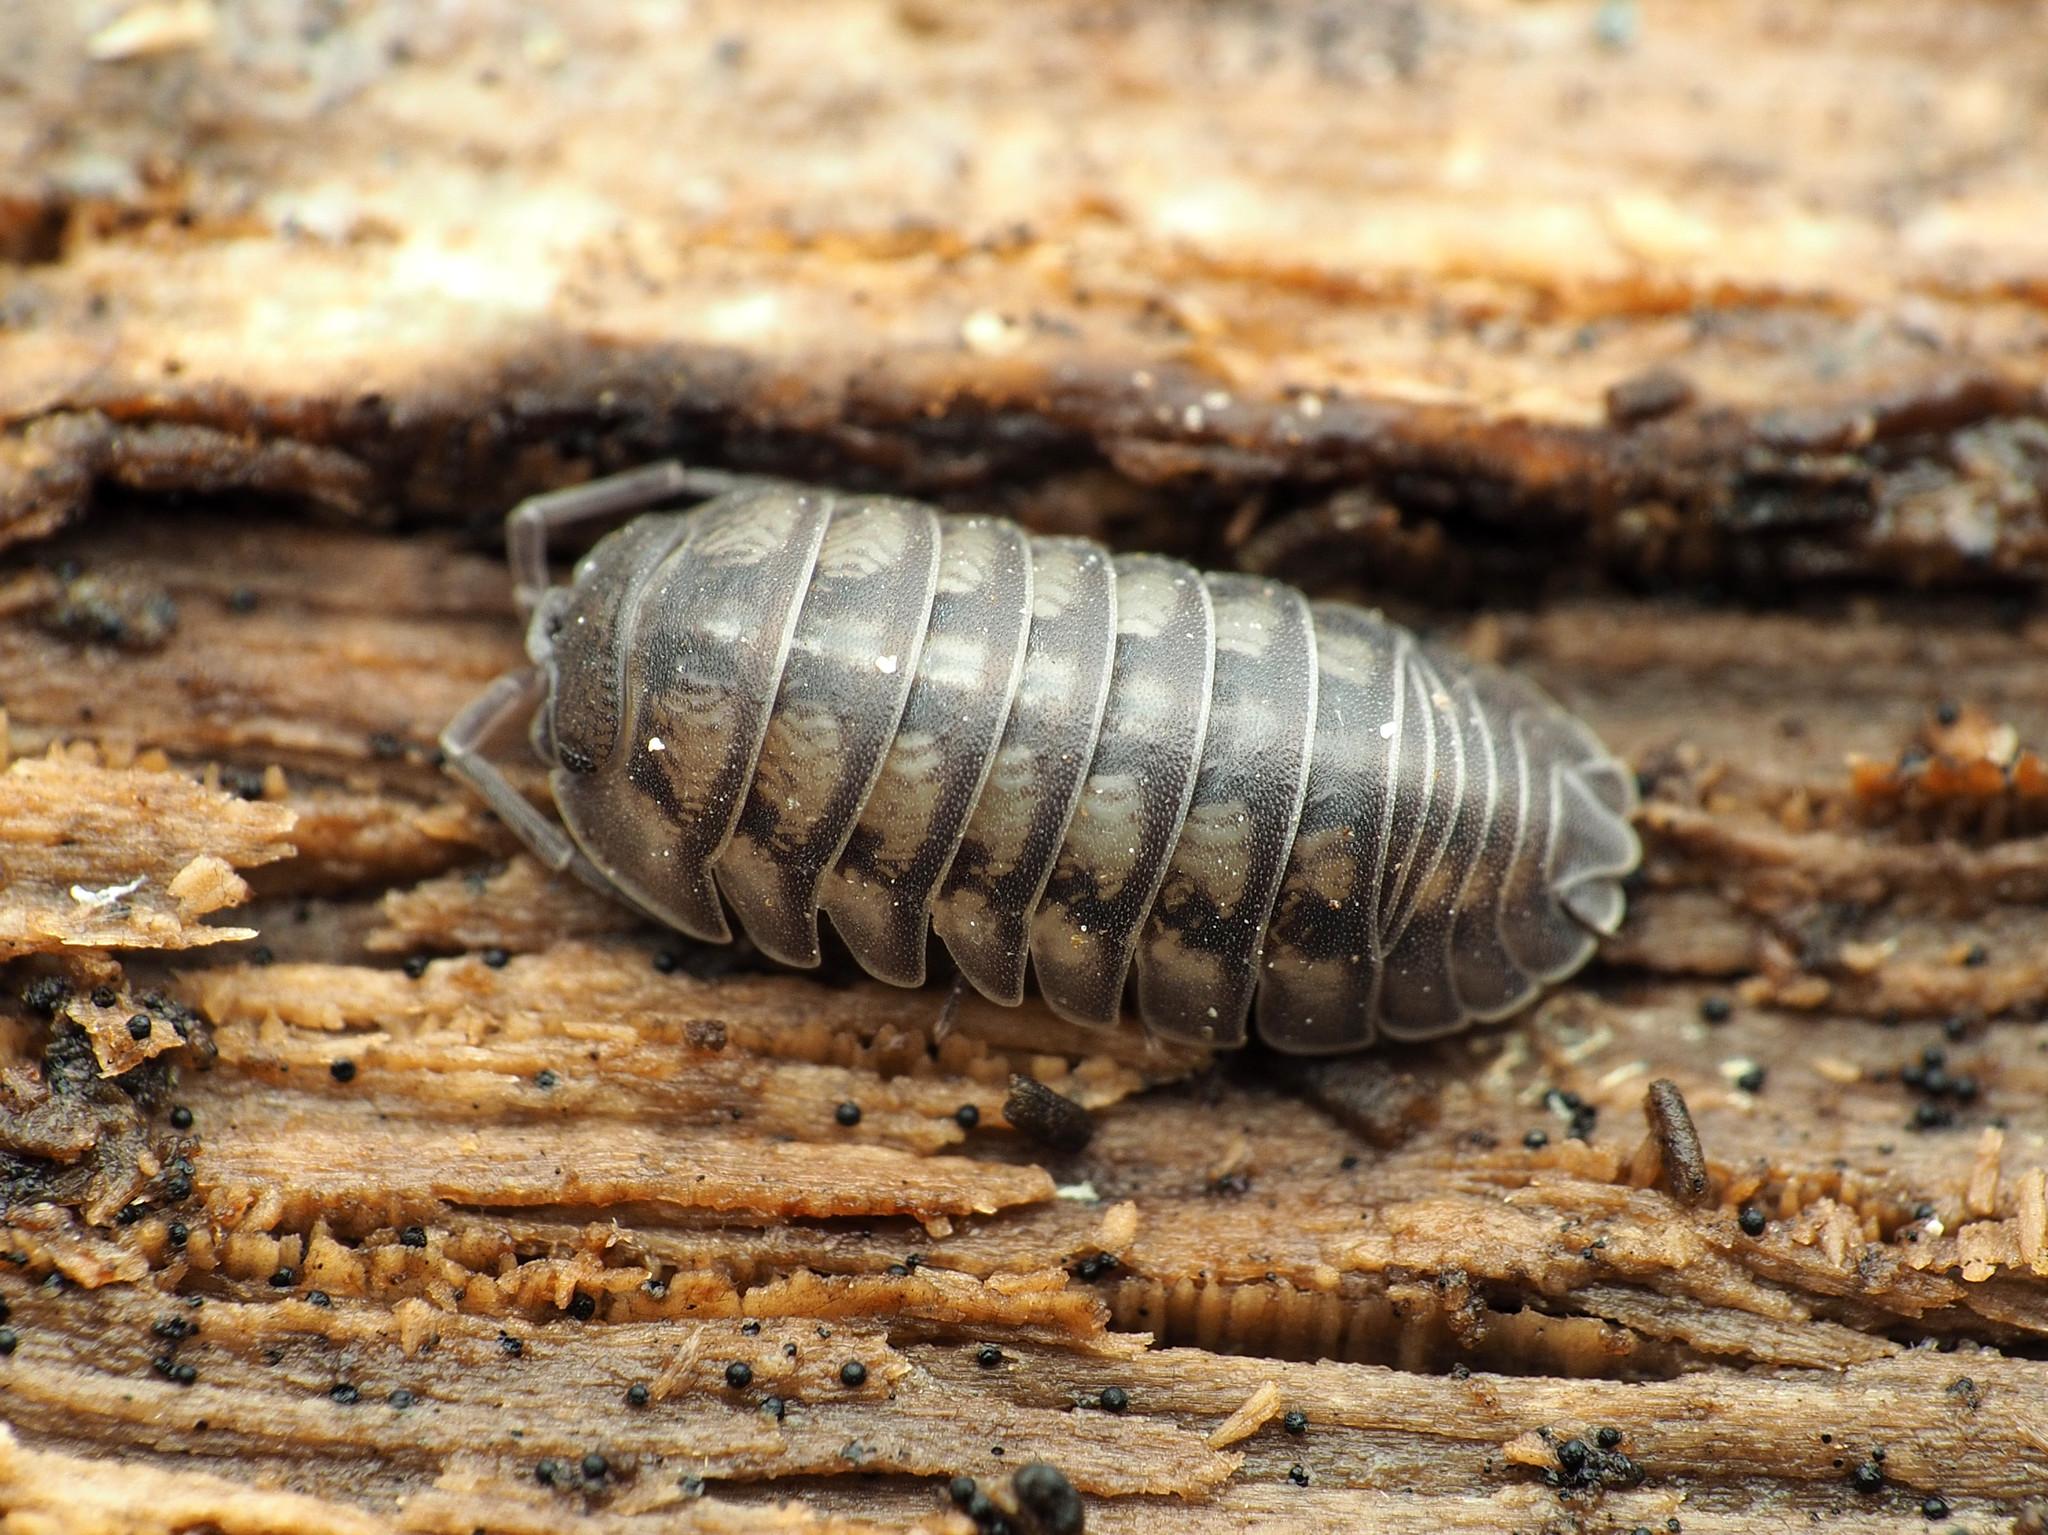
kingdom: Animalia
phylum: Arthropoda
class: Malacostraca
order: Isopoda
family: Armadillidiidae
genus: Armadillidium
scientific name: Armadillidium nasatum
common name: Isopod
